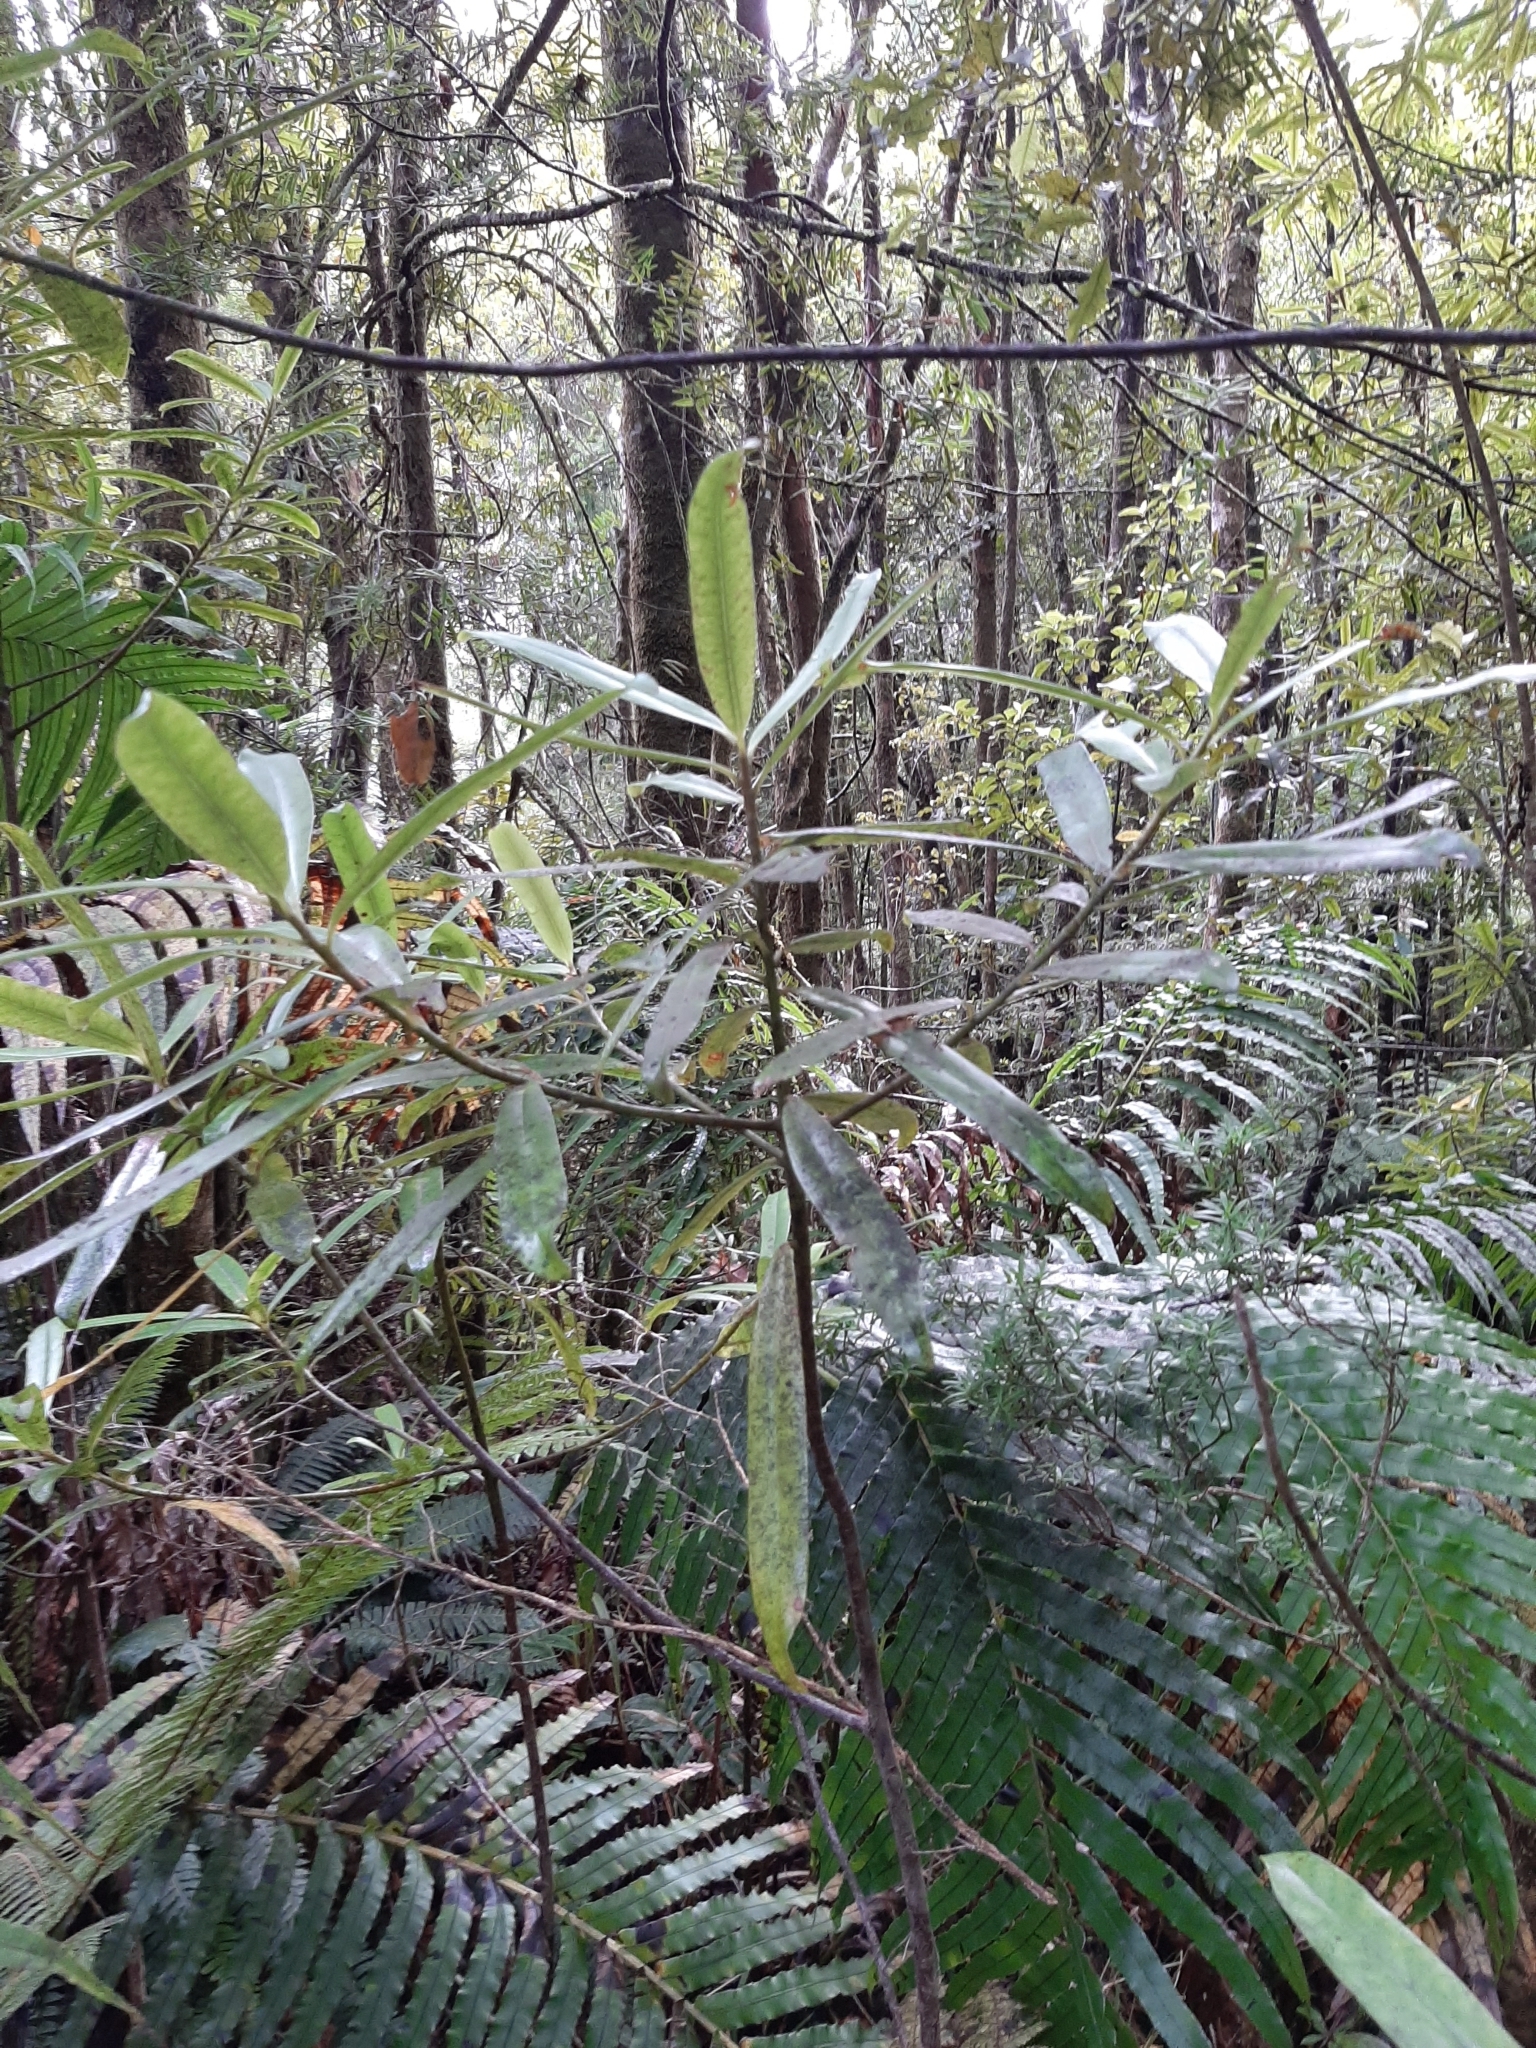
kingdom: Plantae
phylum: Tracheophyta
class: Magnoliopsida
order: Ericales
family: Primulaceae
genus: Myrsine
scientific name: Myrsine salicina
